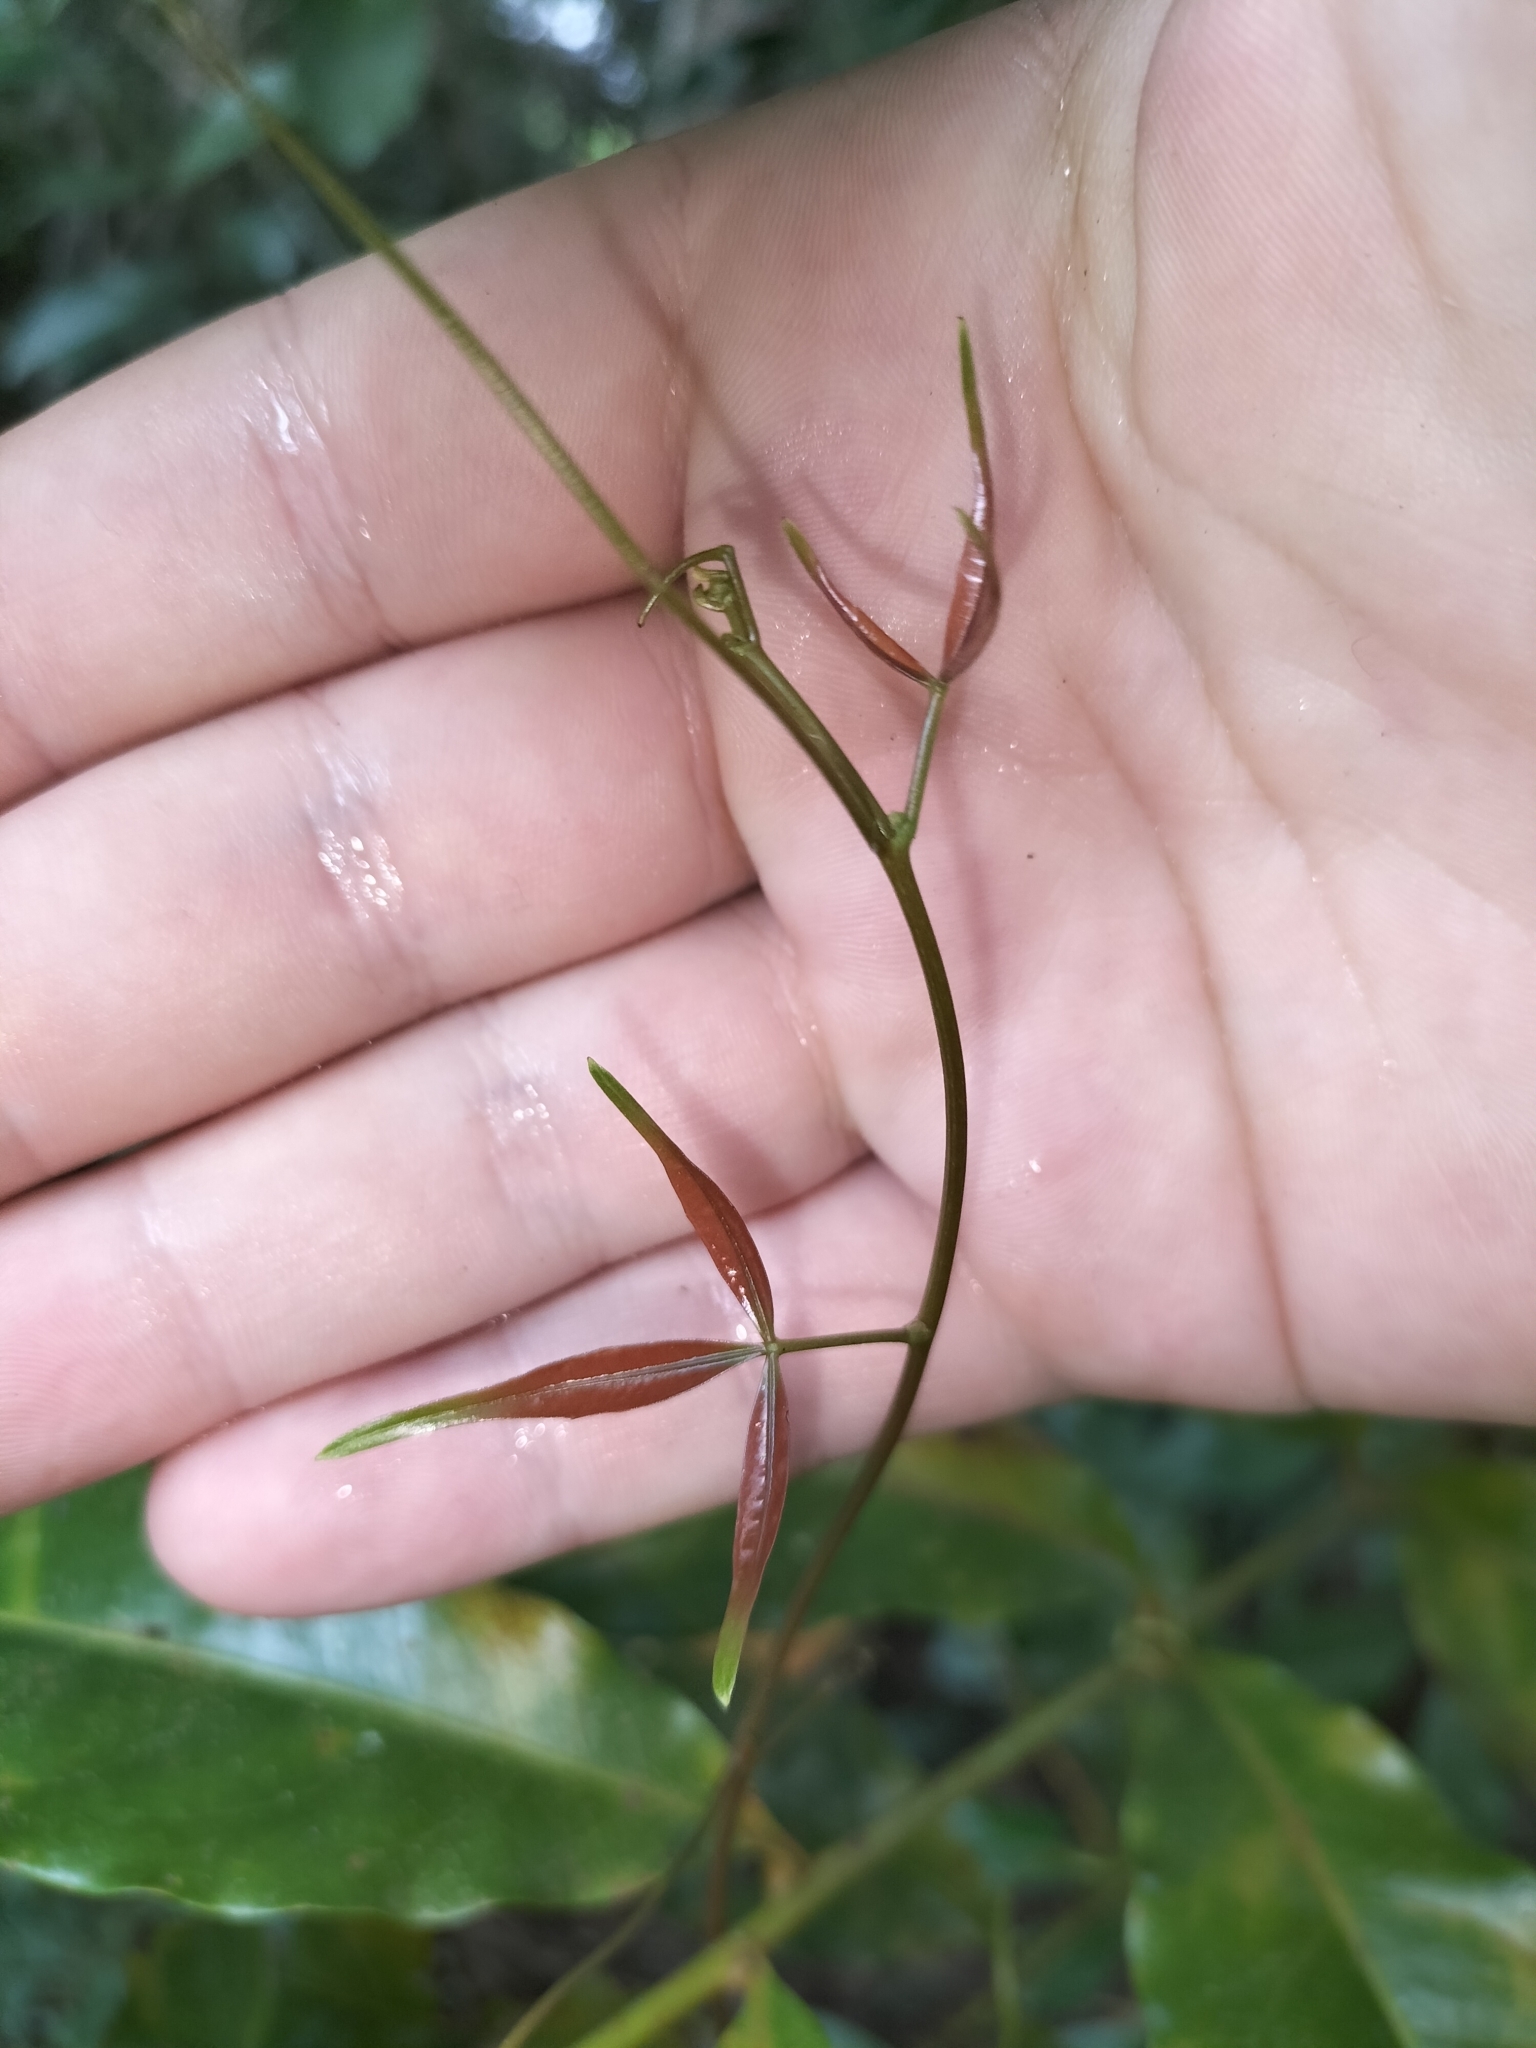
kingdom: Plantae
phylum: Tracheophyta
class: Magnoliopsida
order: Vitales
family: Vitaceae
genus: Nothocissus
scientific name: Nothocissus penninervis
